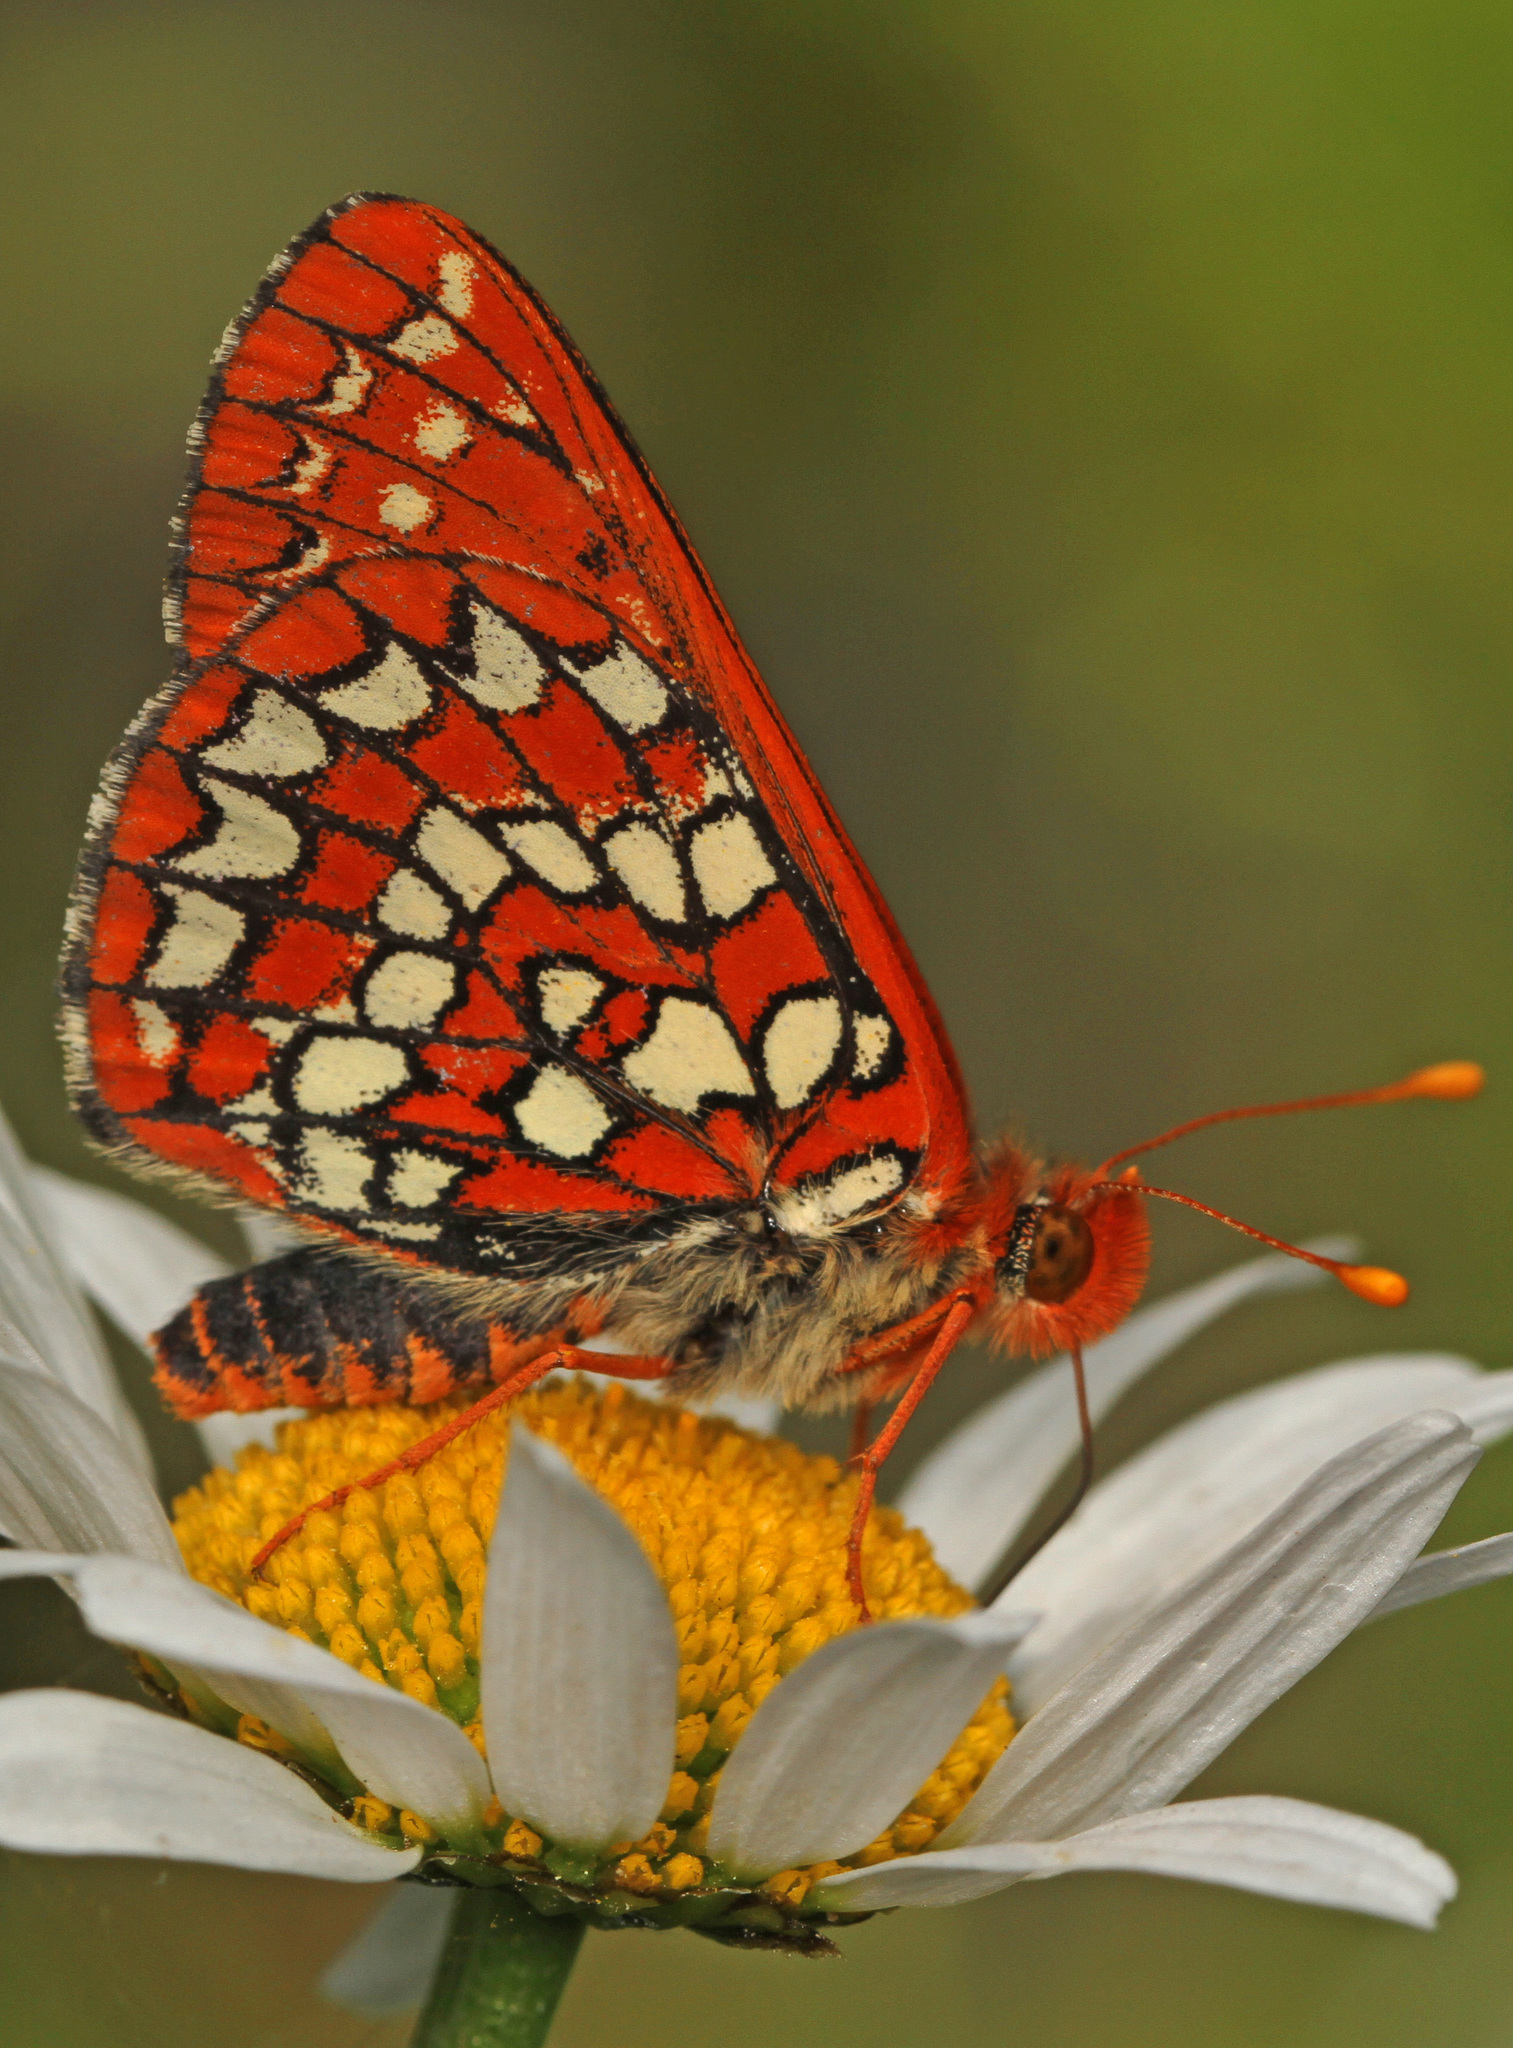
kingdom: Animalia
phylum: Arthropoda
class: Insecta
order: Lepidoptera
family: Nymphalidae
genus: Occidryas
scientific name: Occidryas colon
